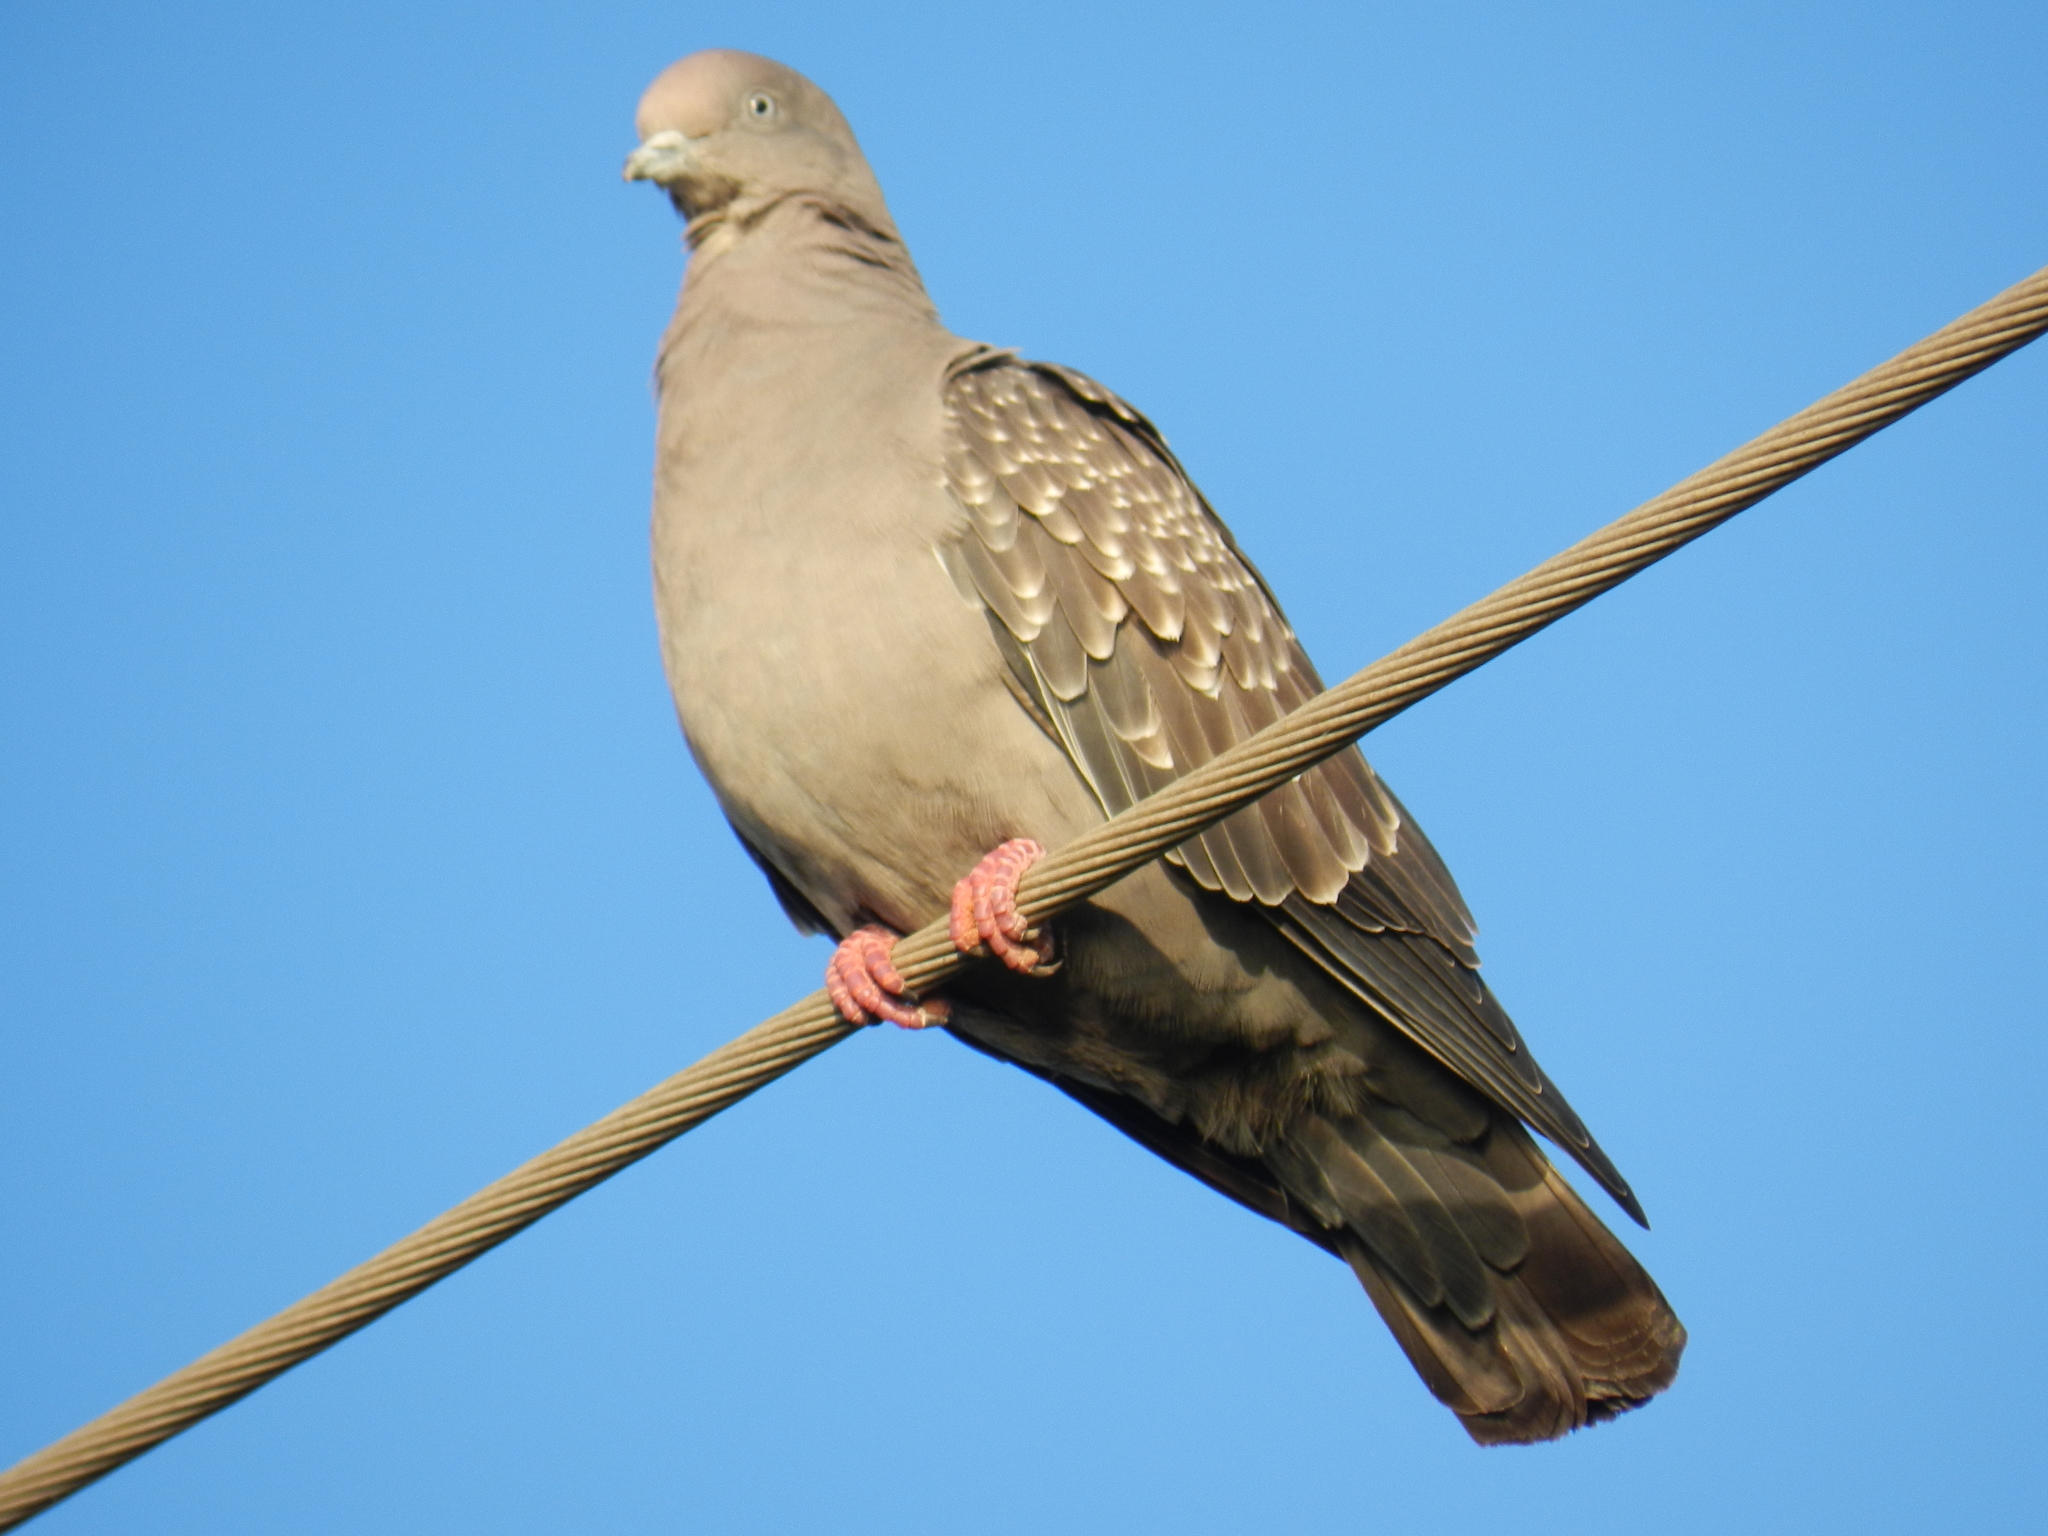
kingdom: Animalia
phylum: Chordata
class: Aves
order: Columbiformes
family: Columbidae
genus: Patagioenas
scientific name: Patagioenas maculosa
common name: Spot-winged pigeon
